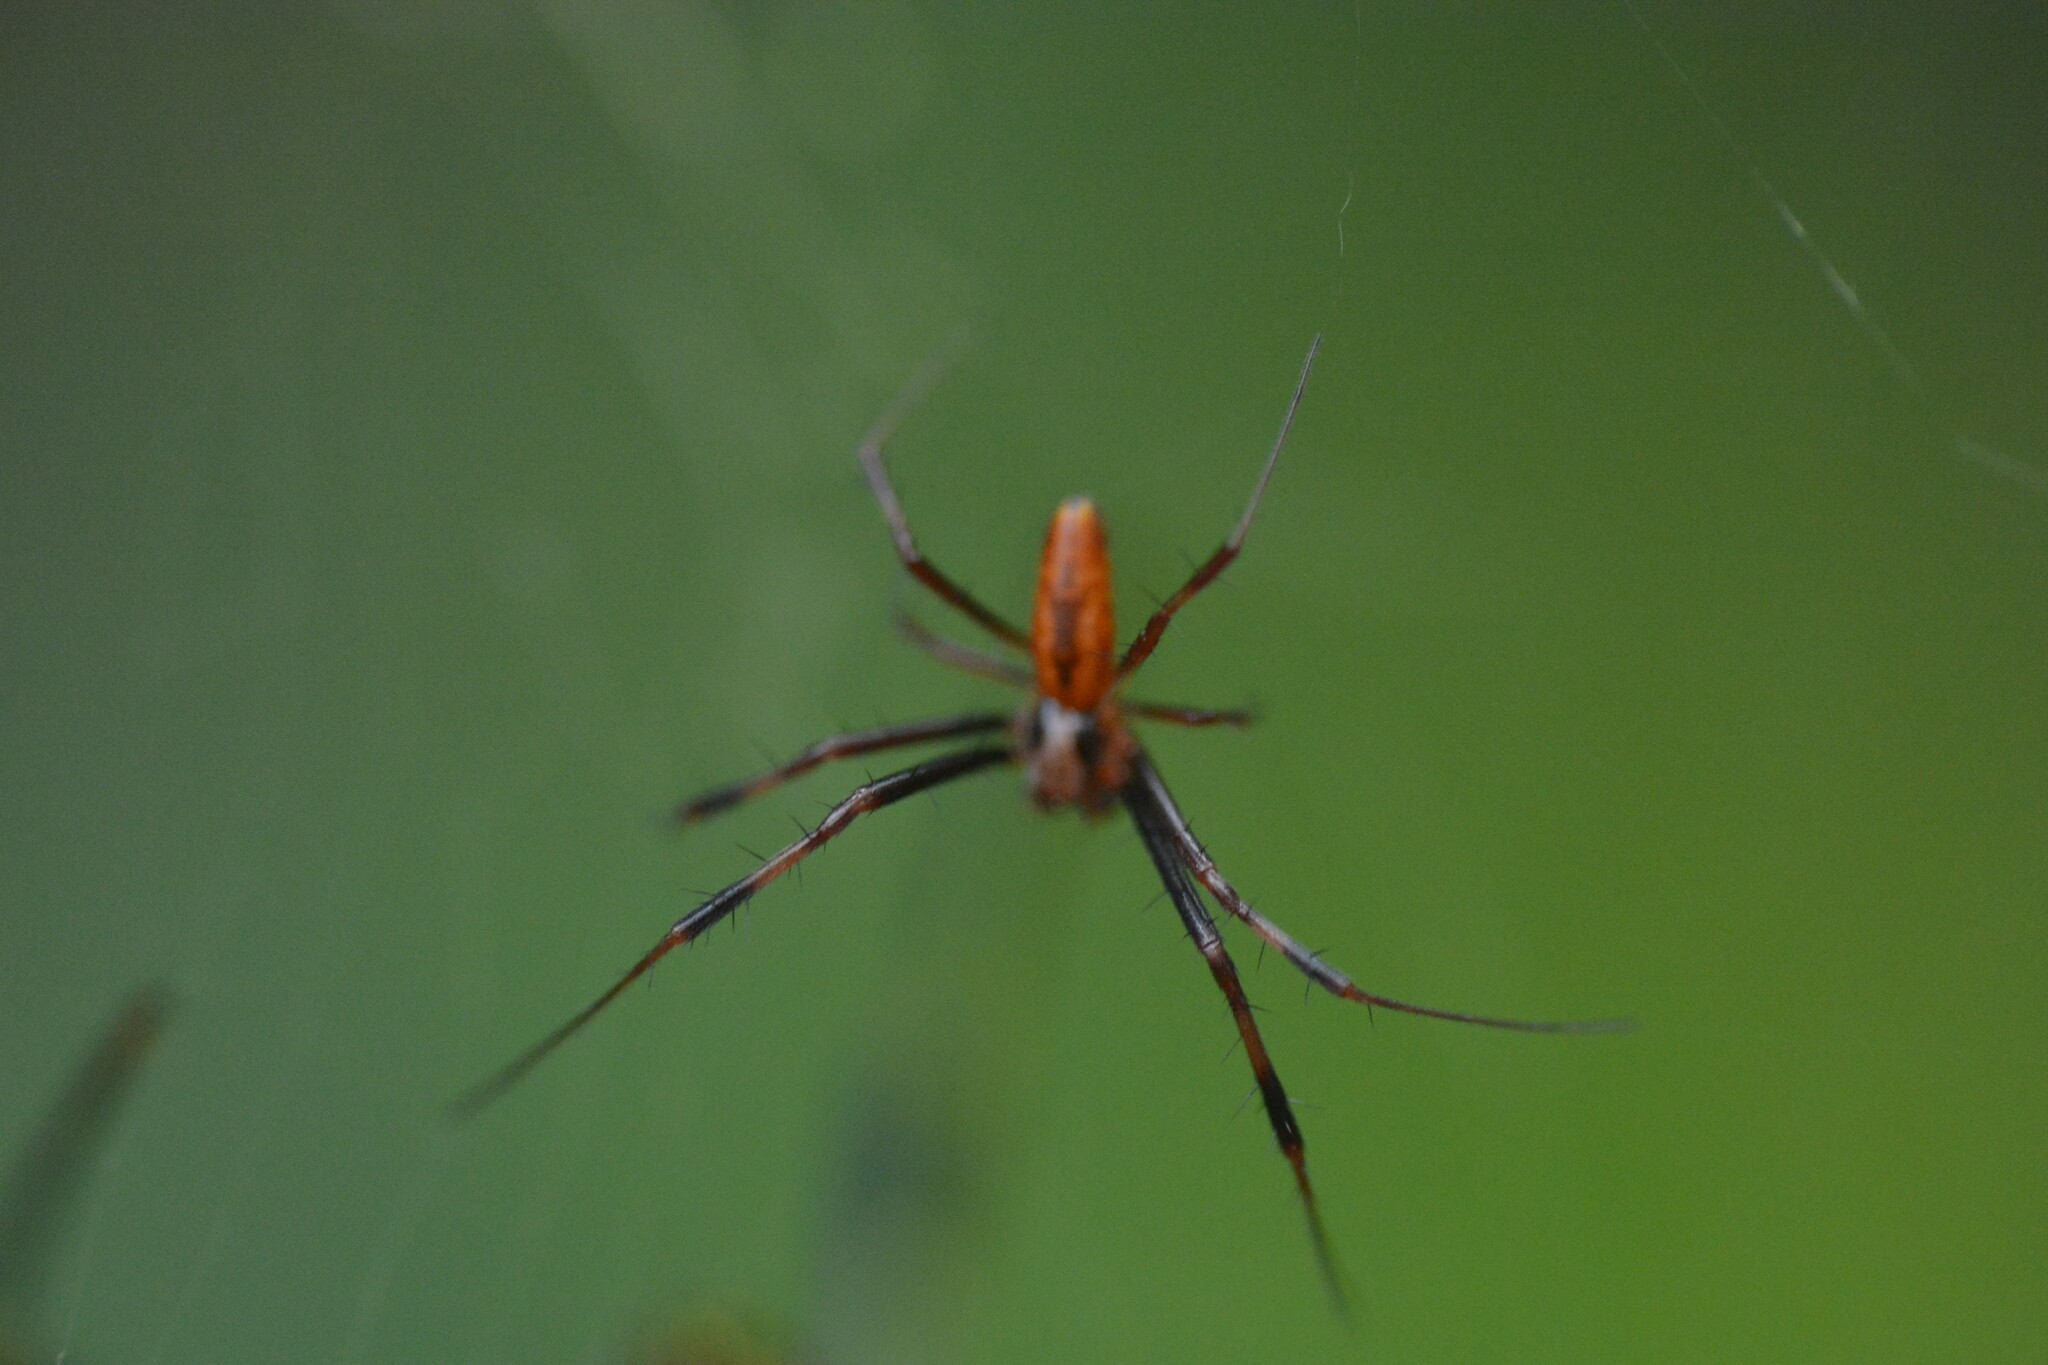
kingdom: Animalia
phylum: Arthropoda
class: Arachnida
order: Araneae
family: Araneidae
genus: Trichonephila
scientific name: Trichonephila clavipes
